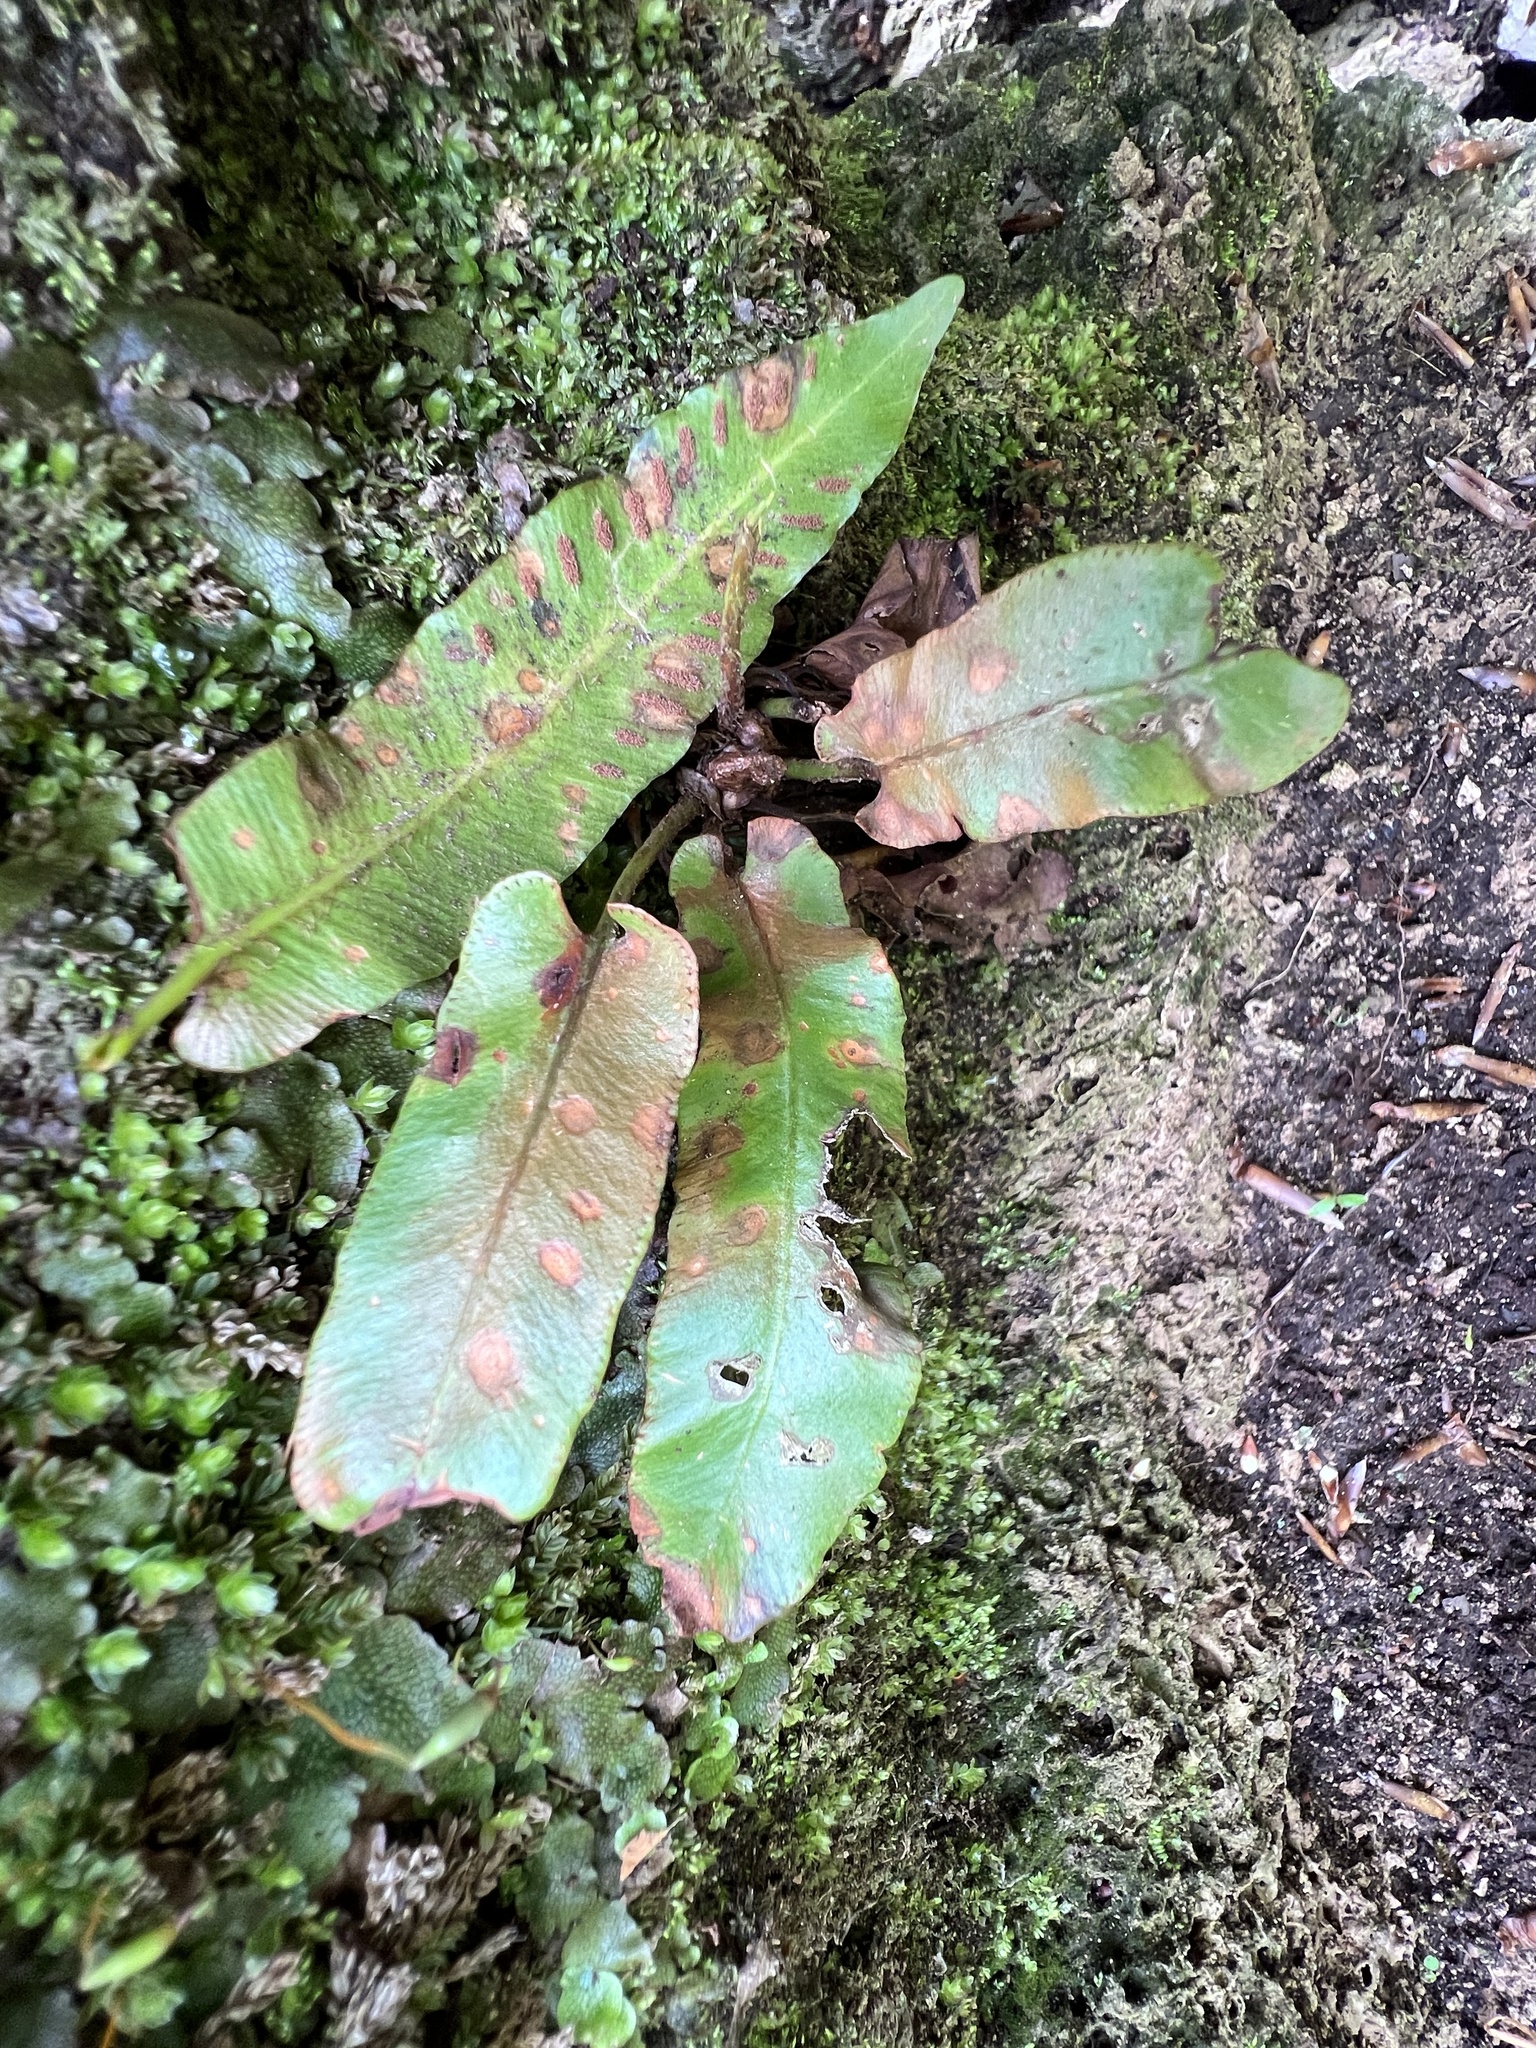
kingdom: Plantae
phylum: Tracheophyta
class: Polypodiopsida
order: Polypodiales
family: Aspleniaceae
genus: Asplenium
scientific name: Asplenium scolopendrium
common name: Hart's-tongue fern
